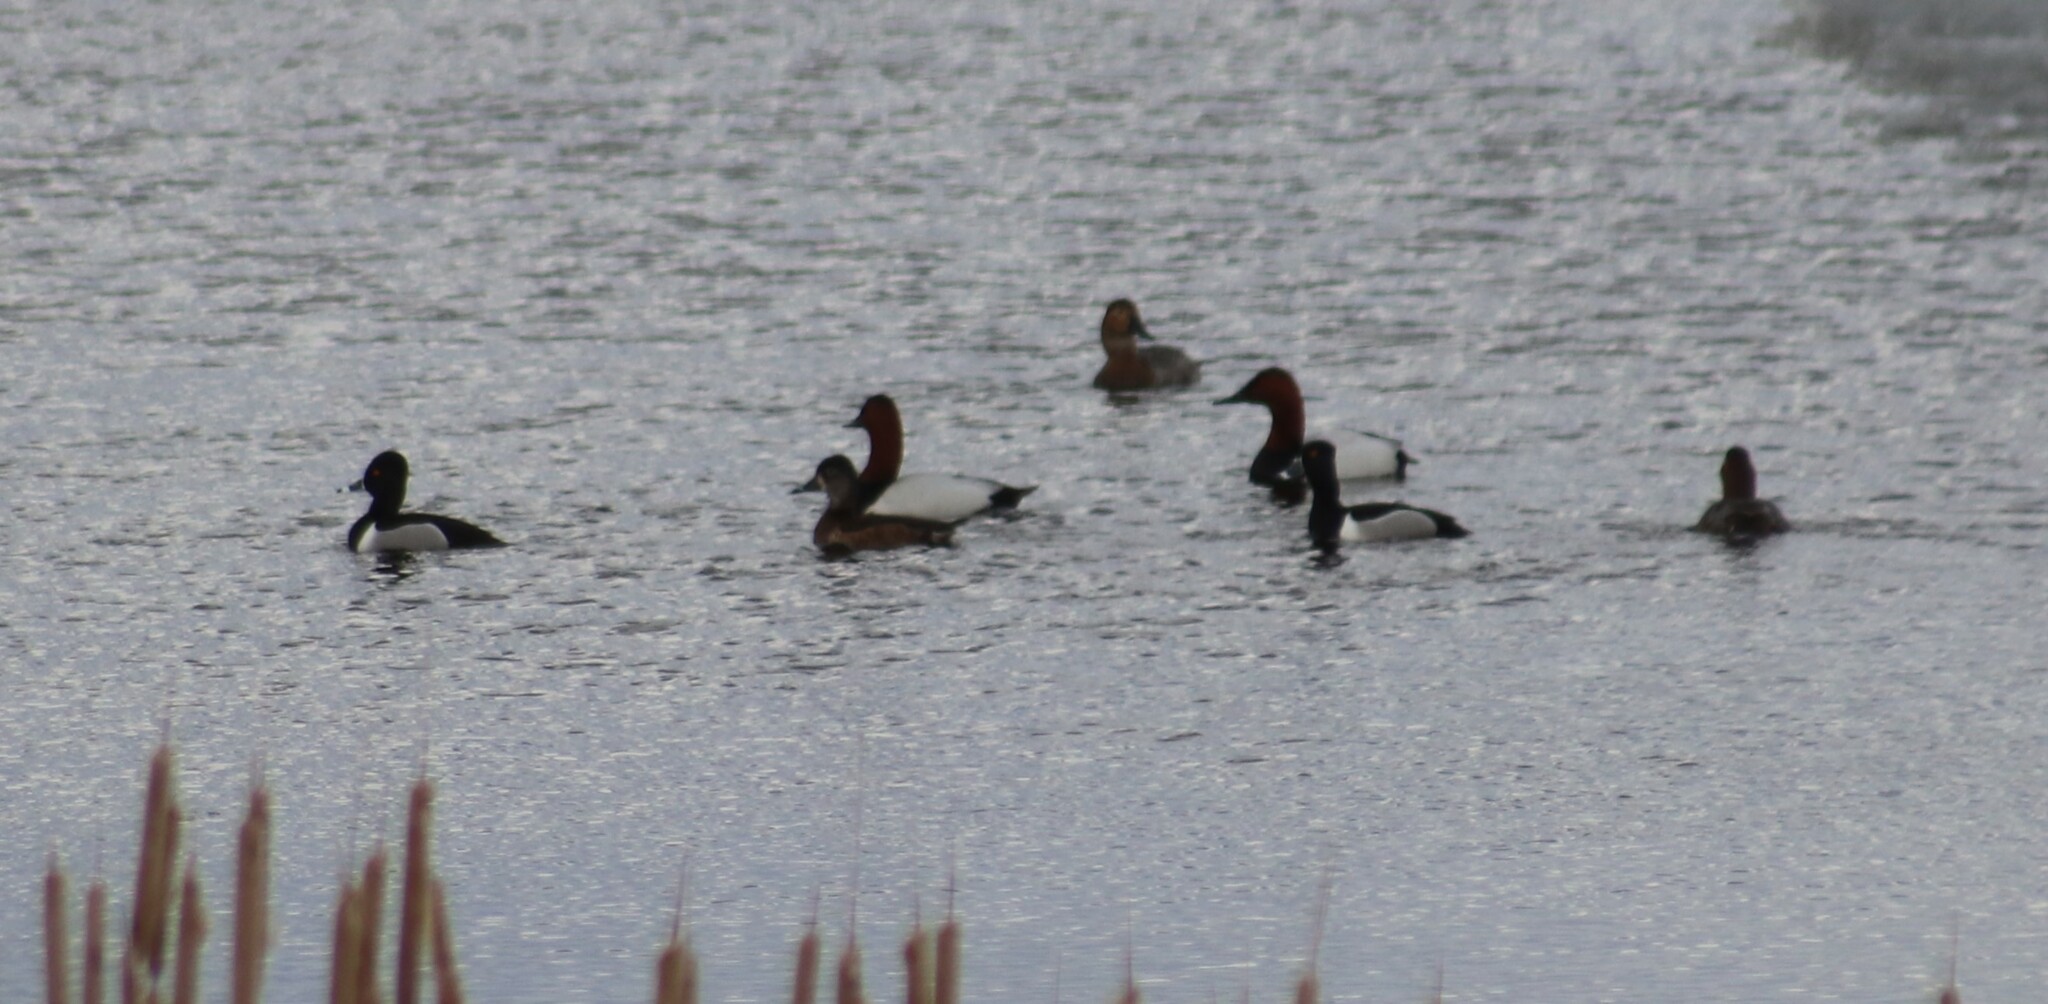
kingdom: Animalia
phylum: Chordata
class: Aves
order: Anseriformes
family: Anatidae
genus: Aythya
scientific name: Aythya collaris
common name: Ring-necked duck
